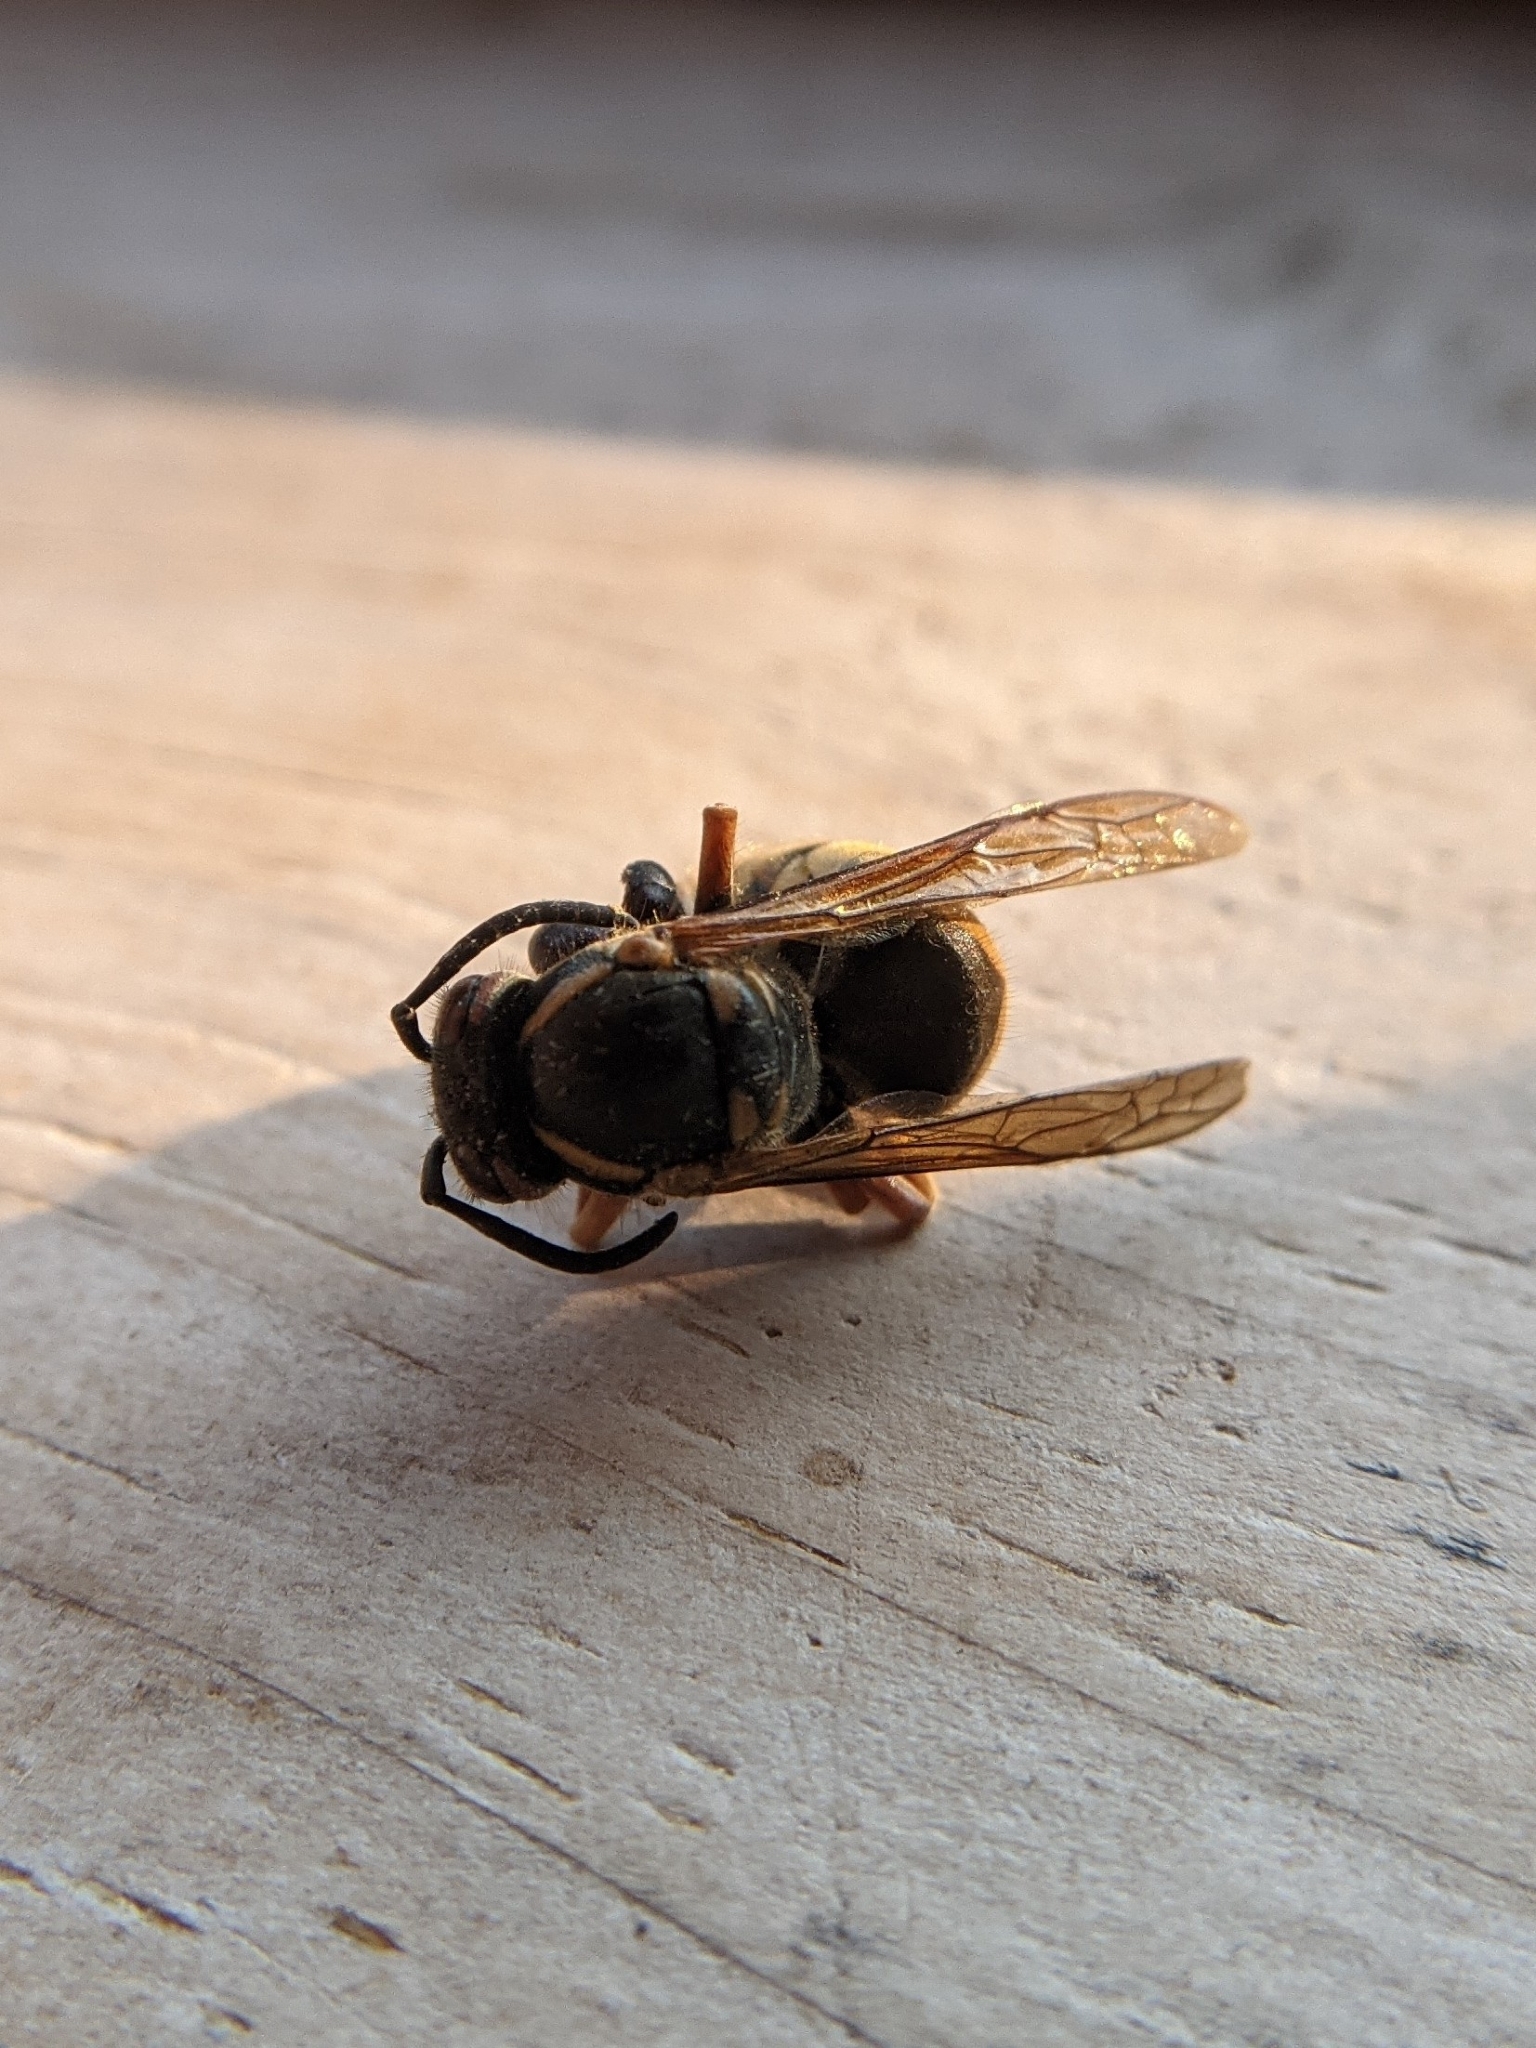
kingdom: Animalia
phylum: Arthropoda
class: Insecta
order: Hymenoptera
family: Vespidae
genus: Vespula
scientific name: Vespula
